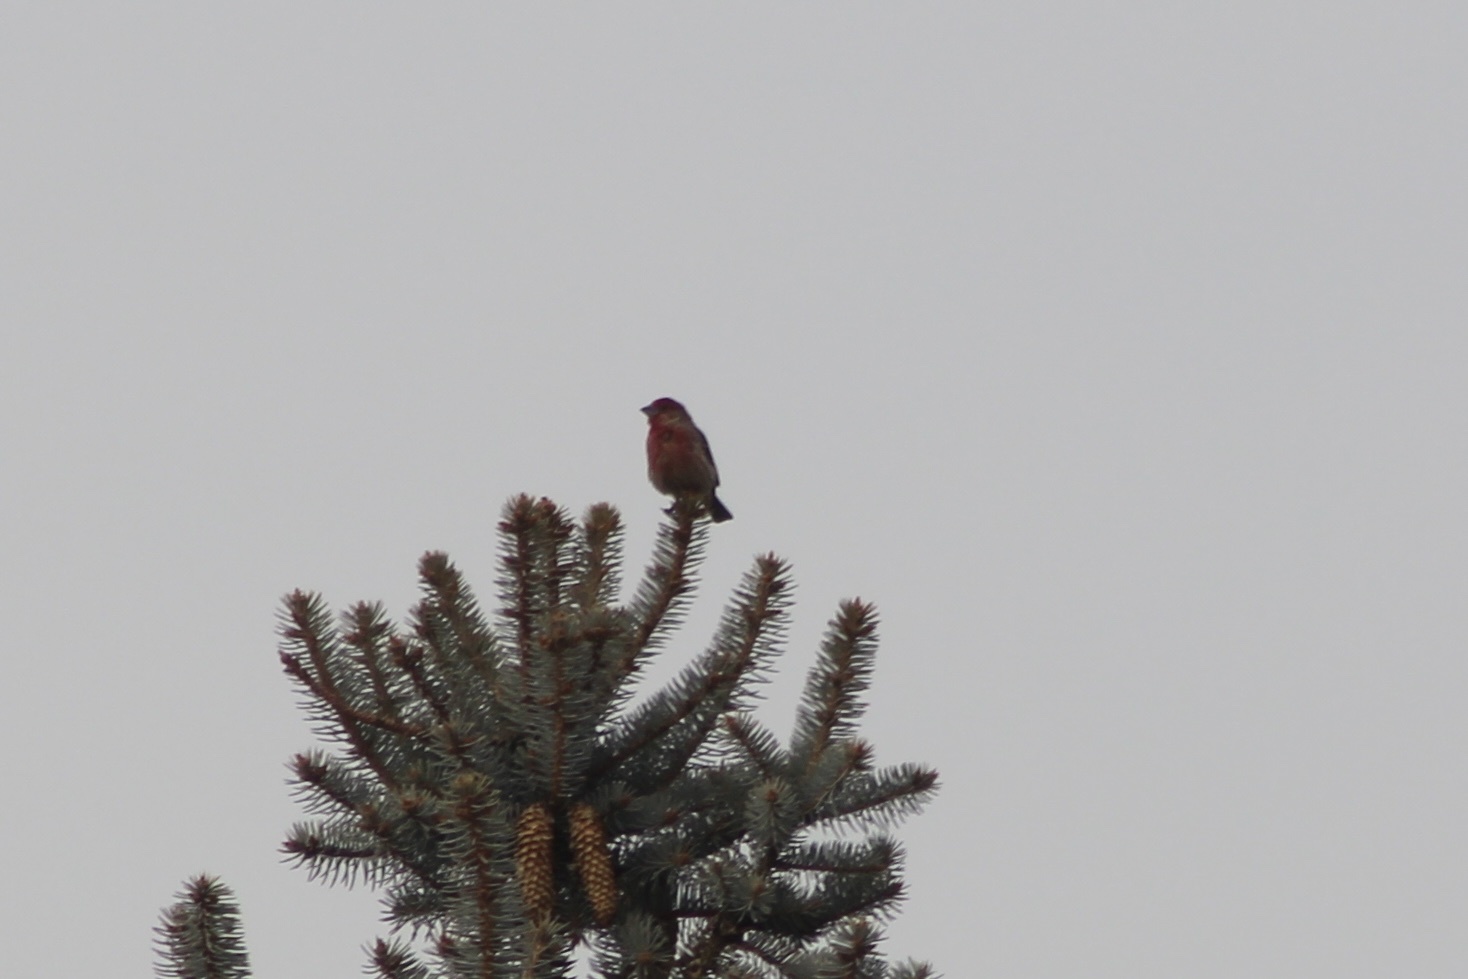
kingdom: Animalia
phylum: Chordata
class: Aves
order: Passeriformes
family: Fringillidae
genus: Haemorhous
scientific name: Haemorhous mexicanus
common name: House finch
